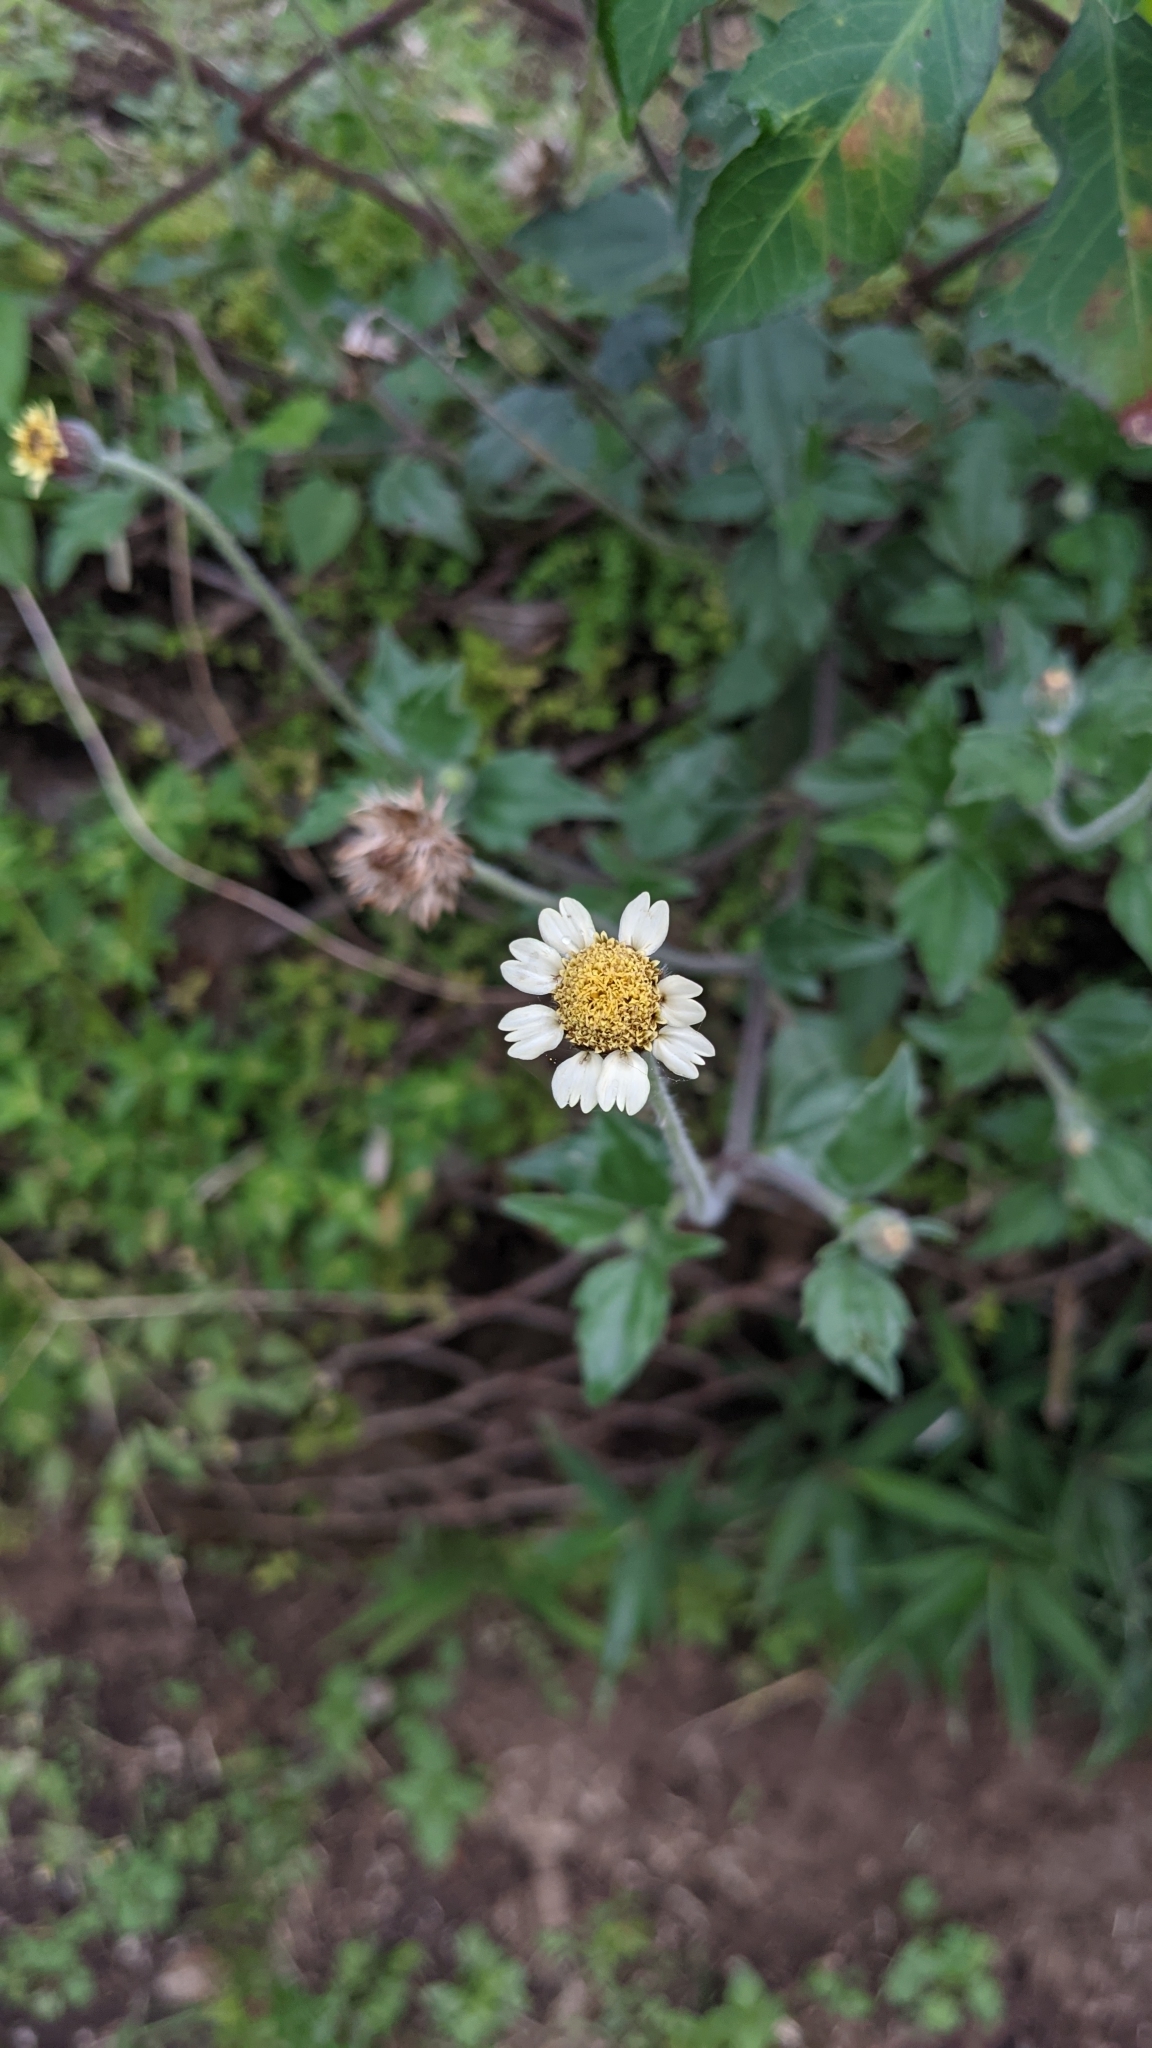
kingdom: Plantae
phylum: Tracheophyta
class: Magnoliopsida
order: Asterales
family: Asteraceae
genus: Tridax
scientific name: Tridax procumbens
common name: Coatbuttons
